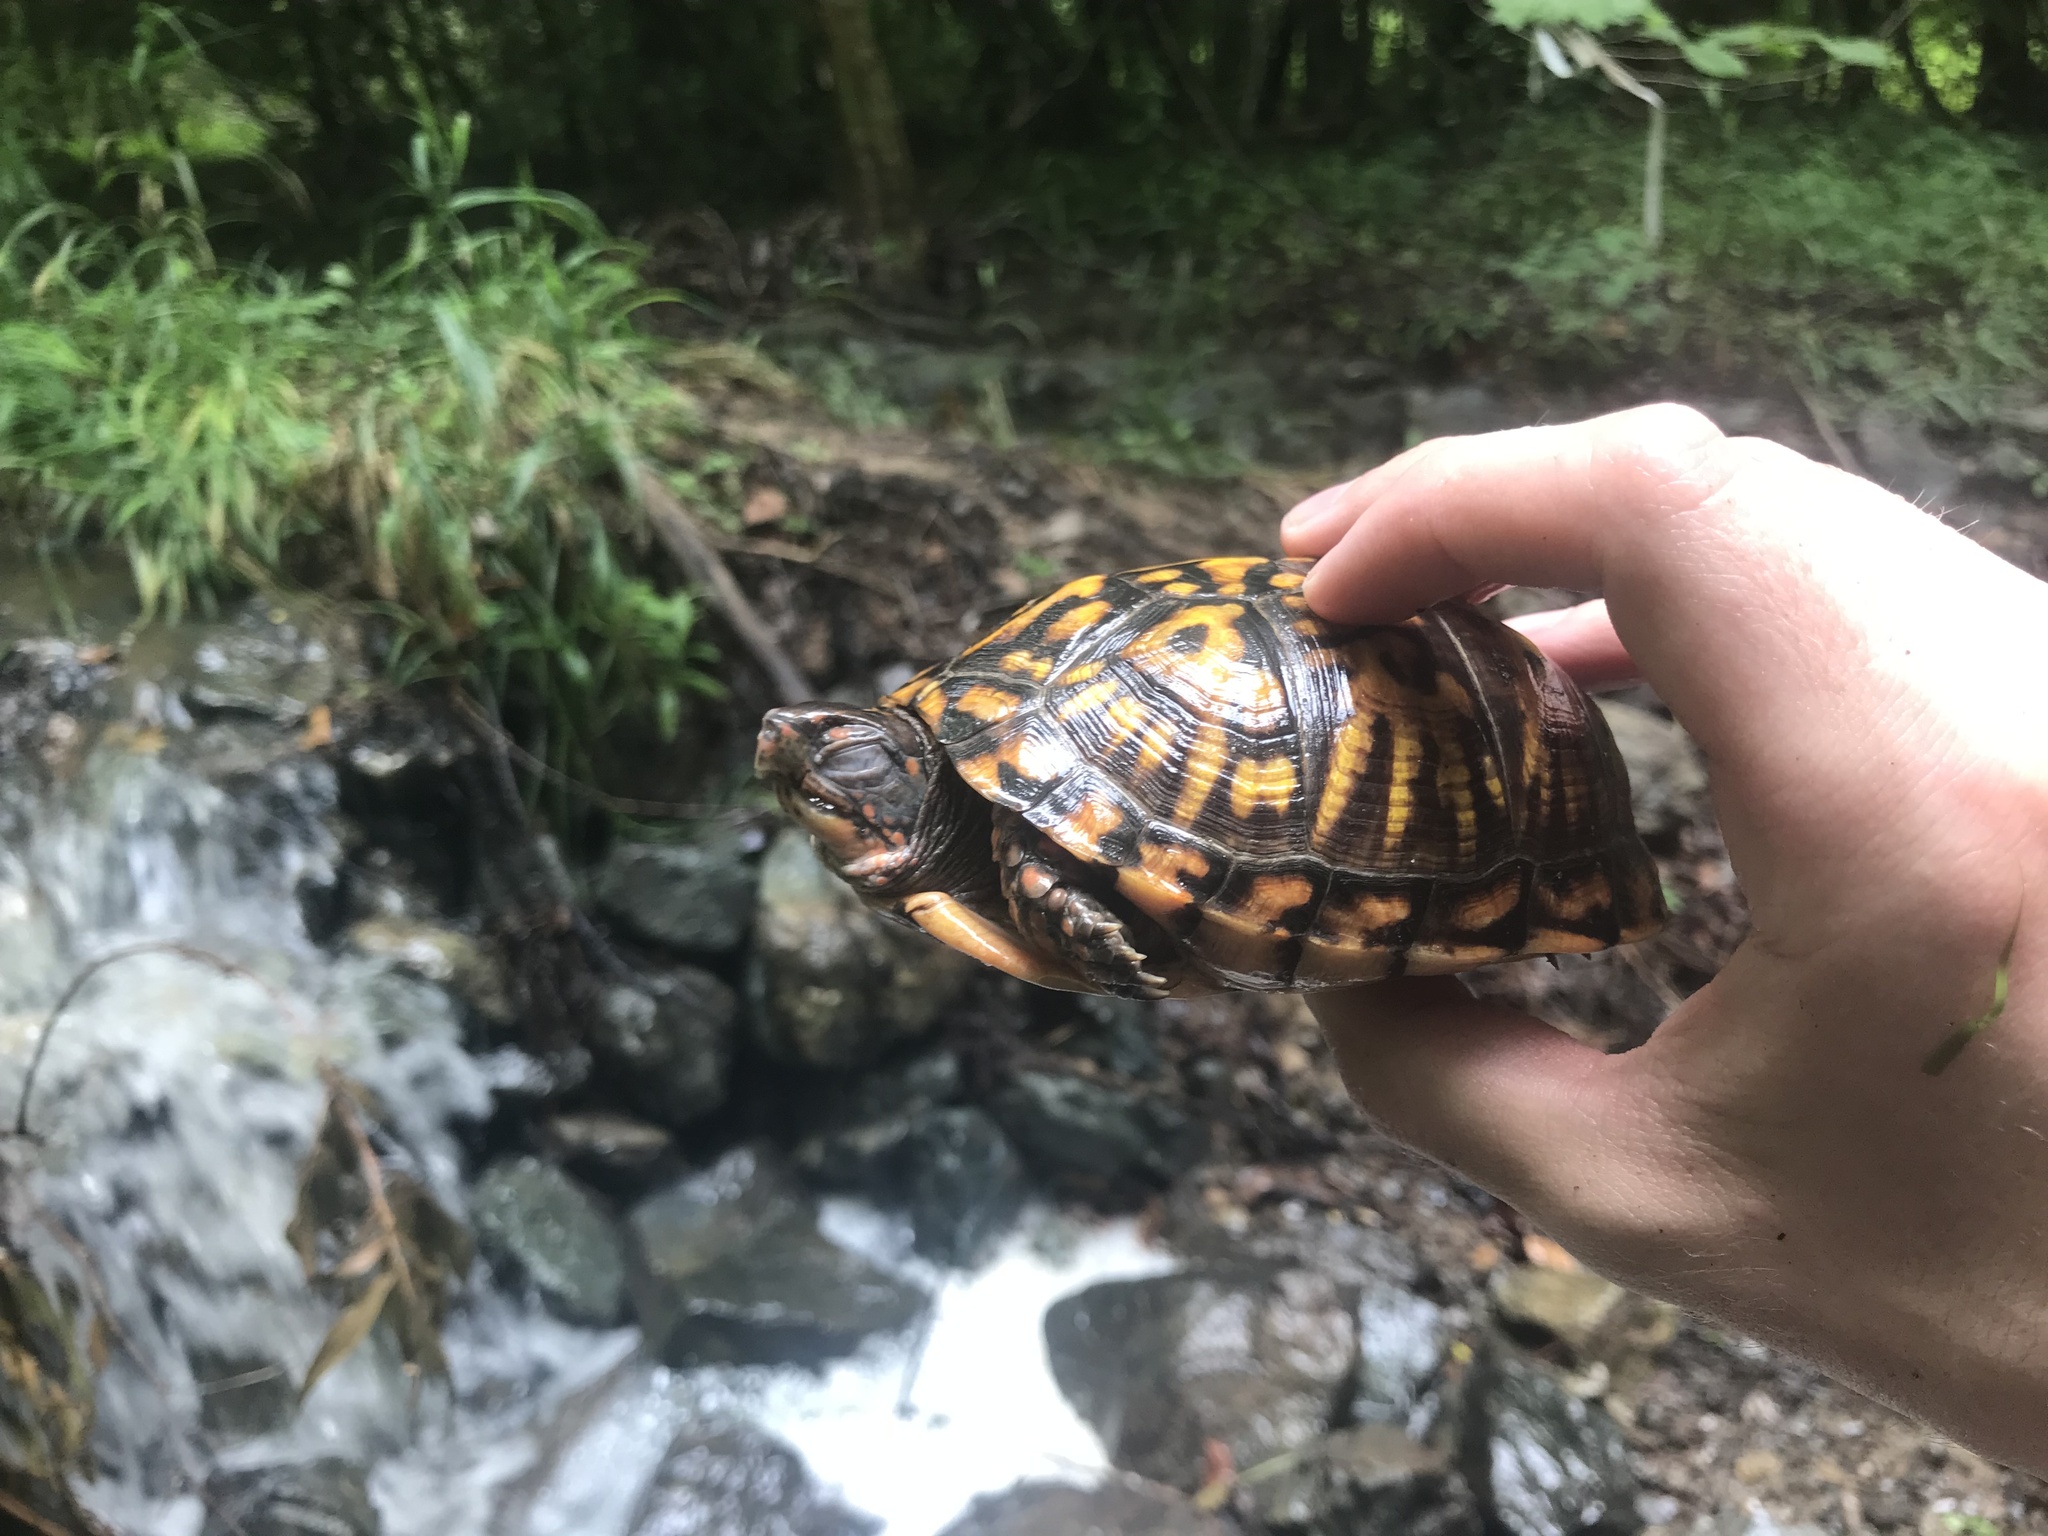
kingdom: Animalia
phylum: Chordata
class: Testudines
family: Emydidae
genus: Terrapene
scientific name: Terrapene carolina
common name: Common box turtle
